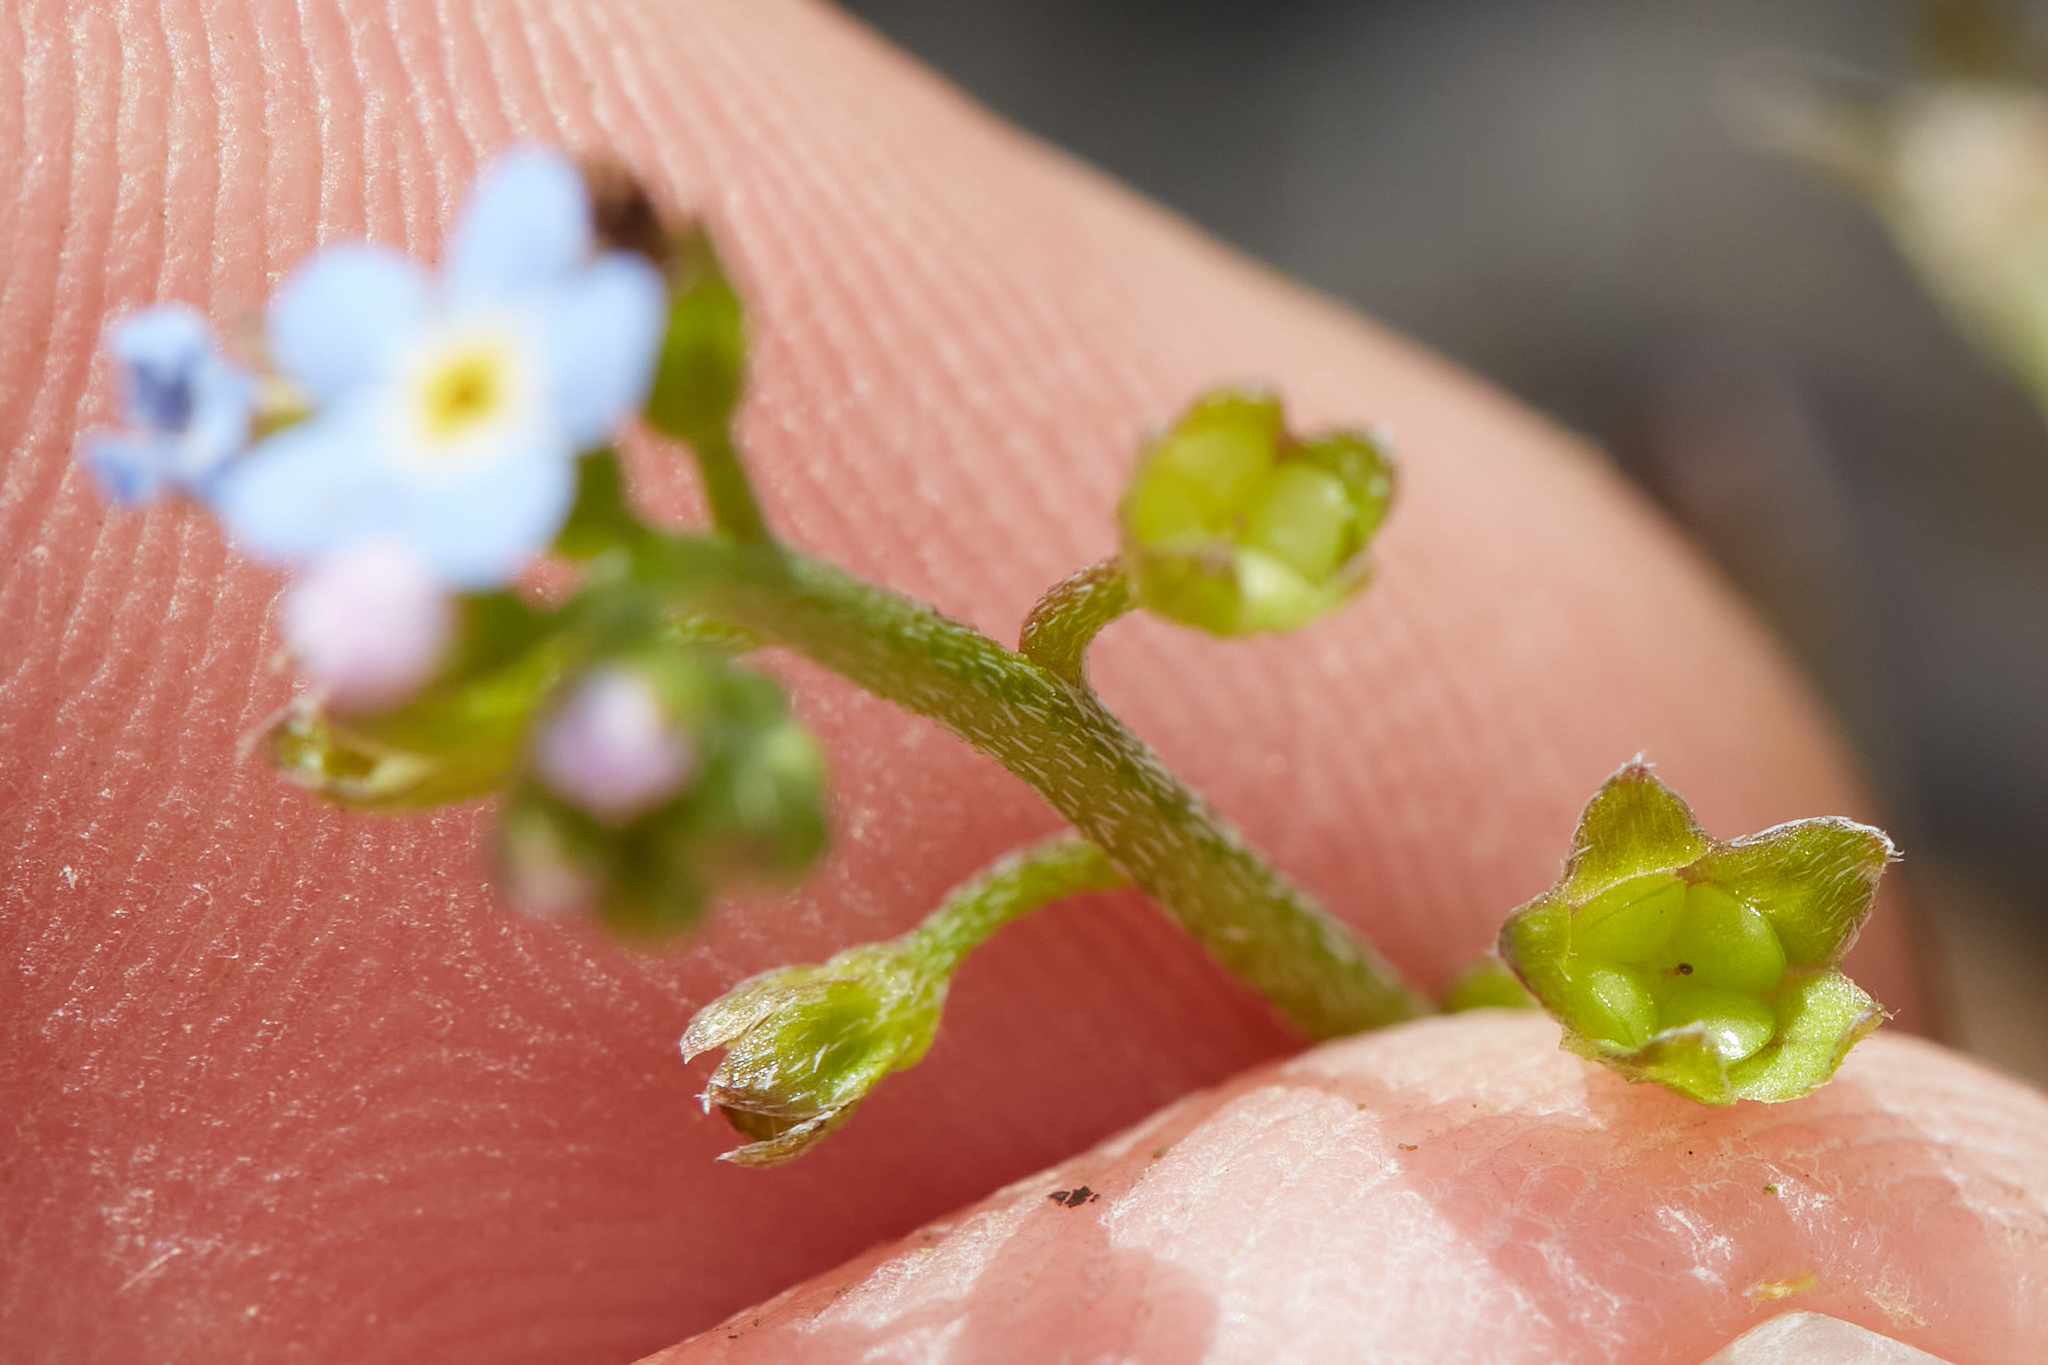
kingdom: Plantae
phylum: Tracheophyta
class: Magnoliopsida
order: Boraginales
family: Boraginaceae
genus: Myosotis
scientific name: Myosotis laxa
